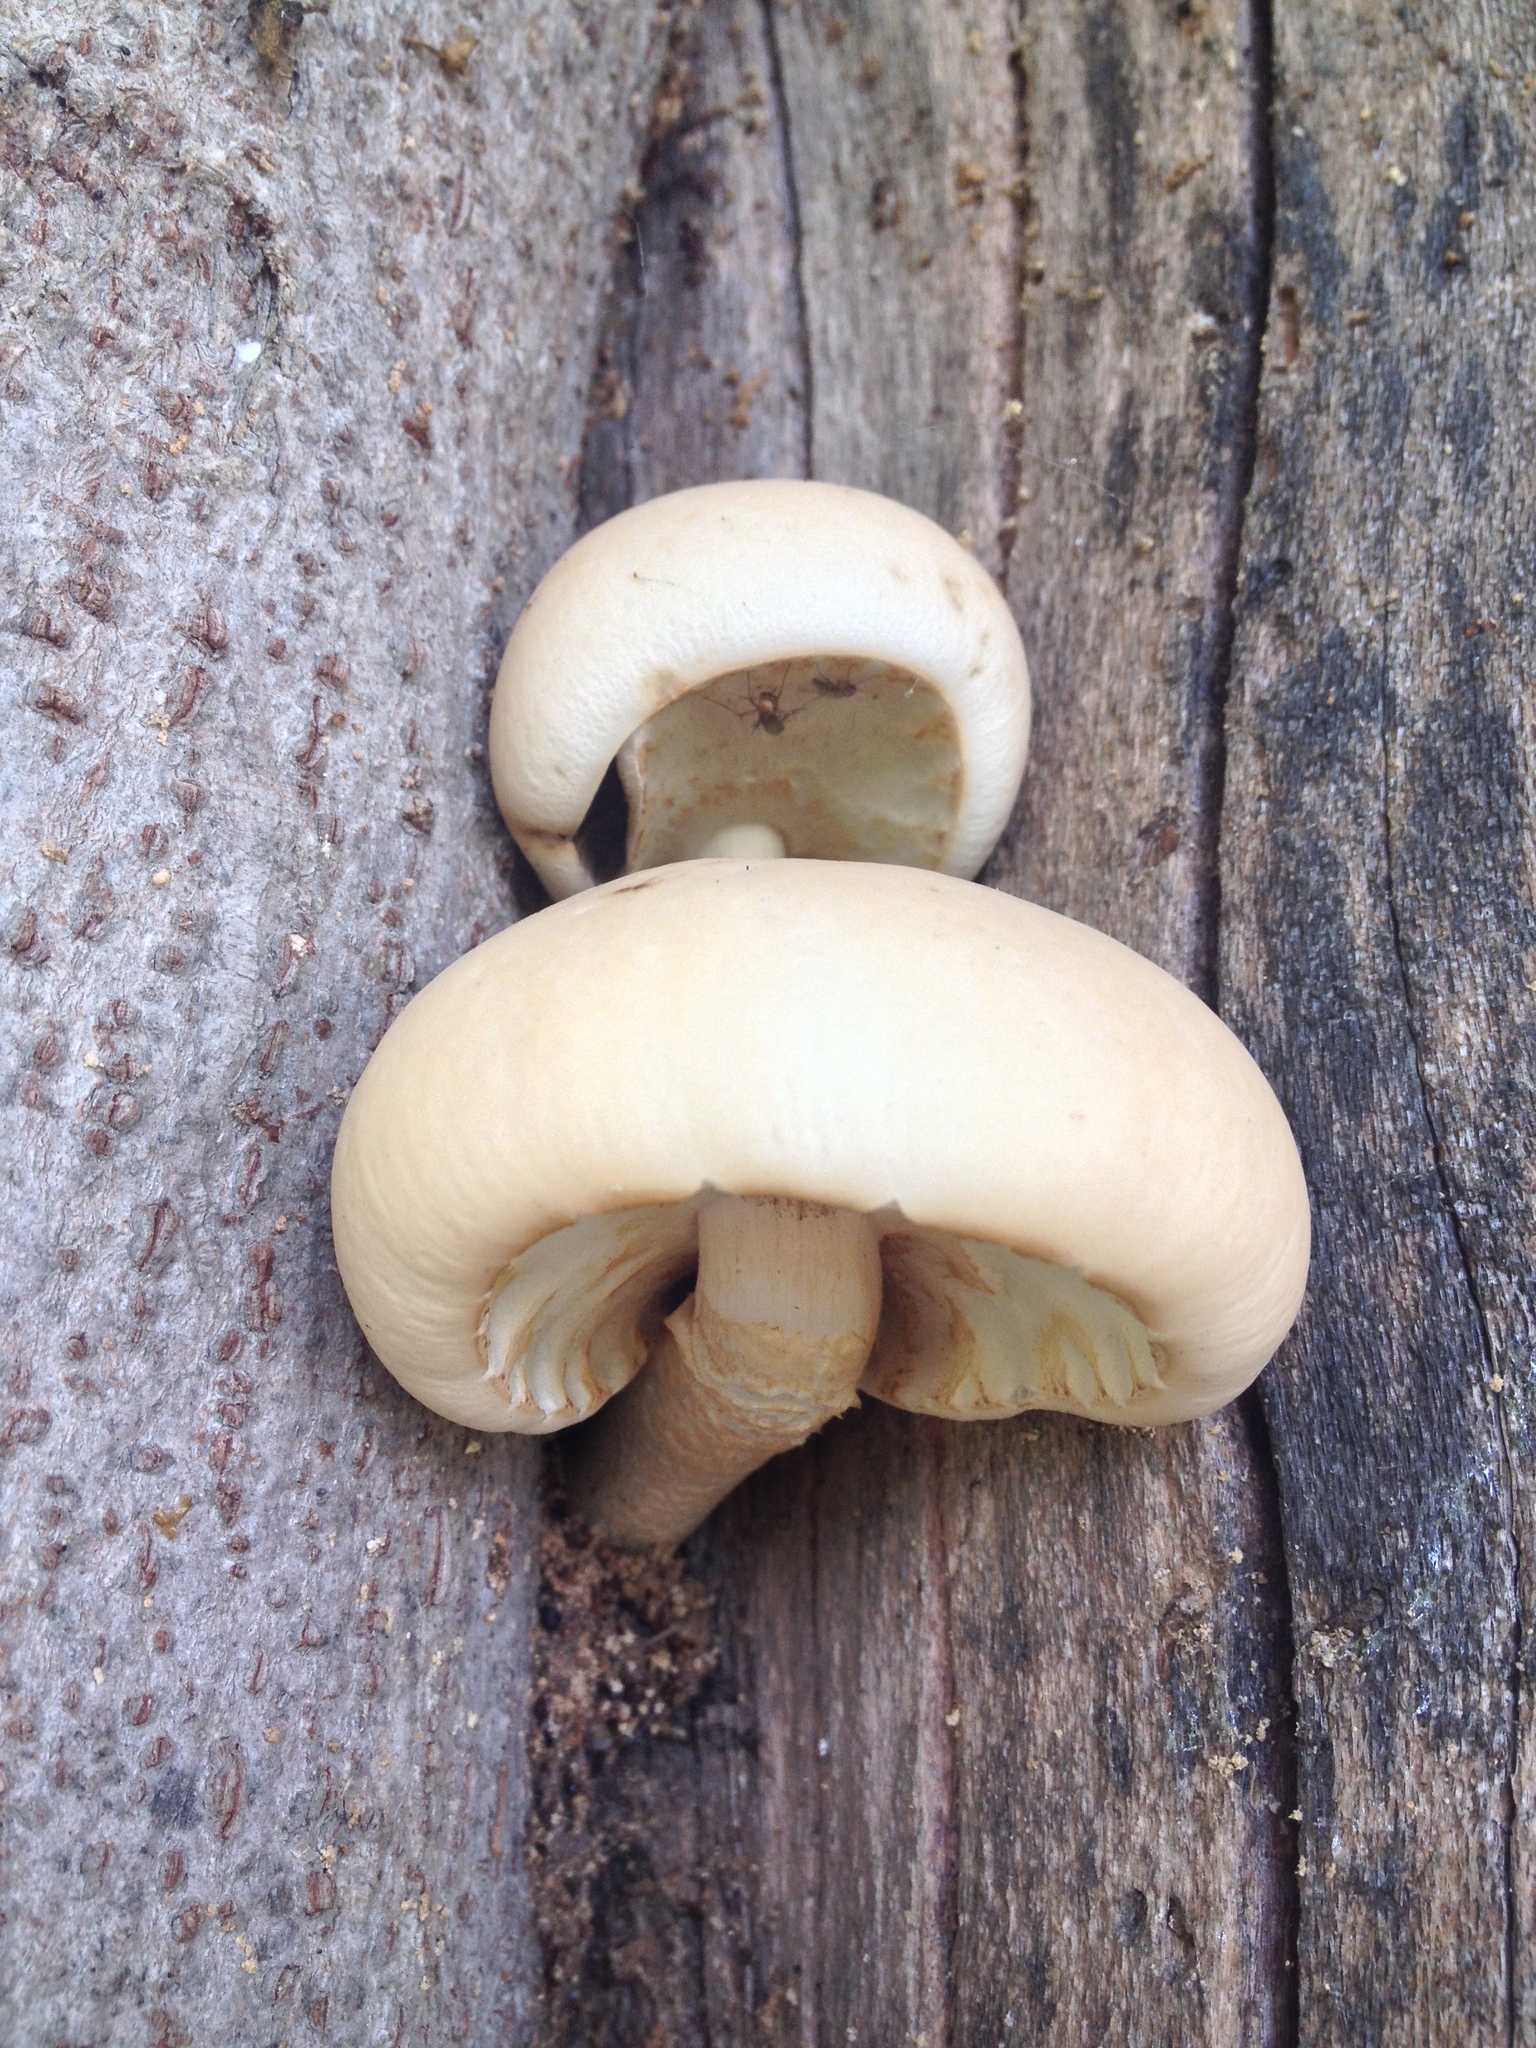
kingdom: Fungi
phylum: Basidiomycota
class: Agaricomycetes
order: Agaricales
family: Tubariaceae
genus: Cyclocybe
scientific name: Cyclocybe parasitica
